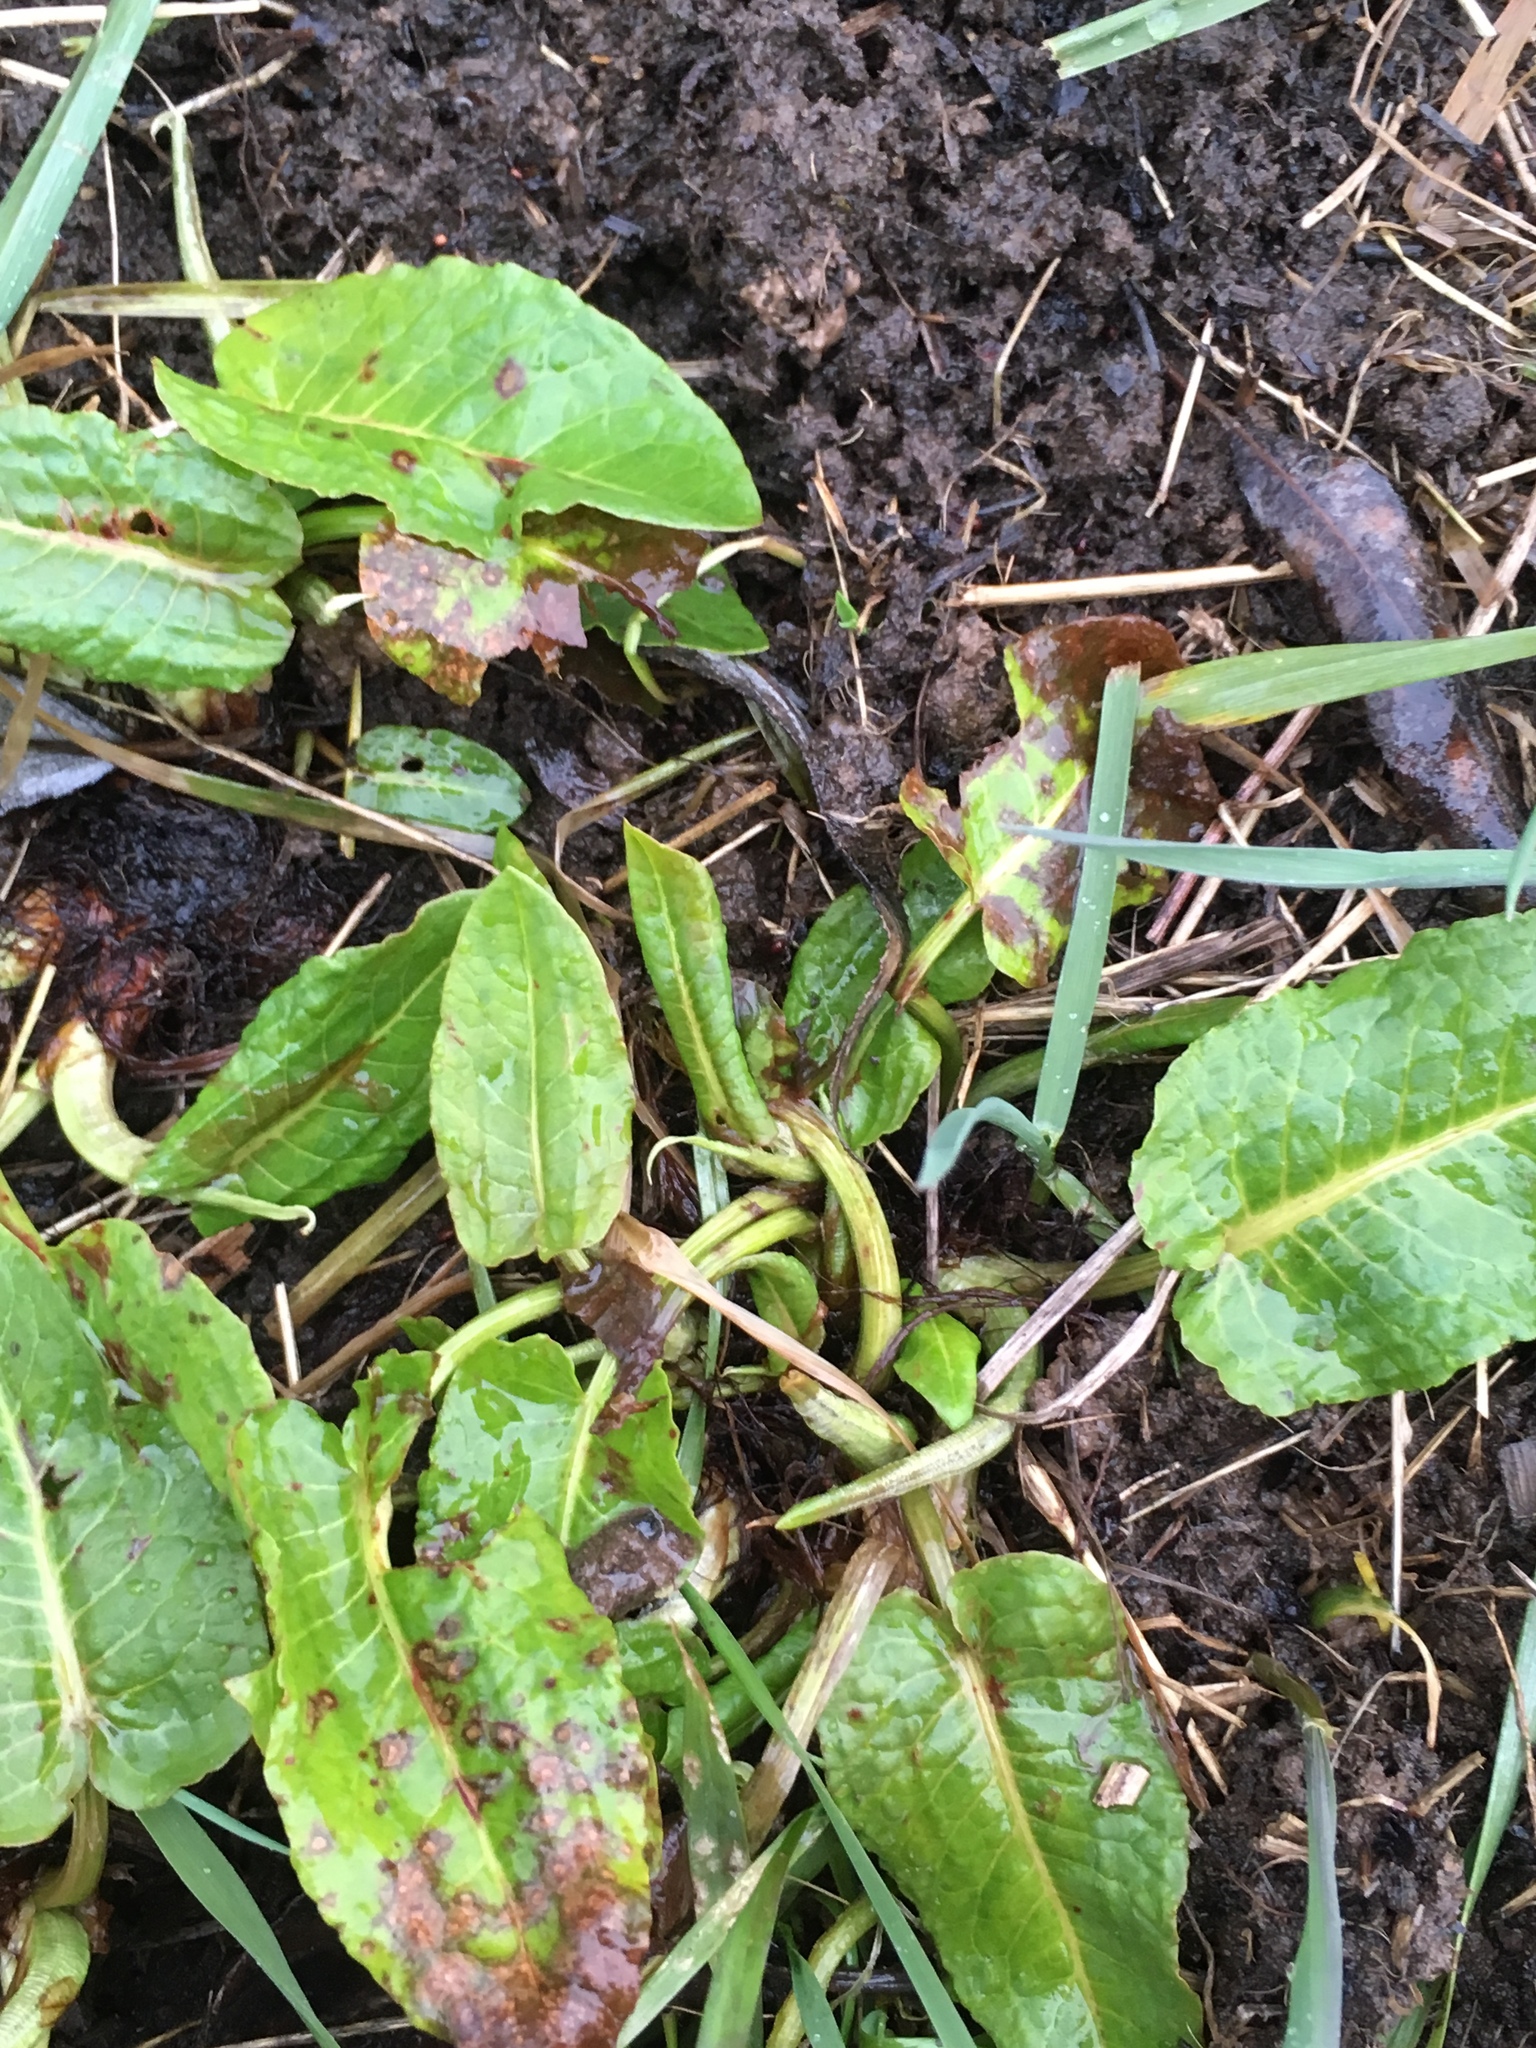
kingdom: Plantae
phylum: Tracheophyta
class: Magnoliopsida
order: Caryophyllales
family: Polygonaceae
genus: Rumex
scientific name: Rumex obtusifolius
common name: Bitter dock
